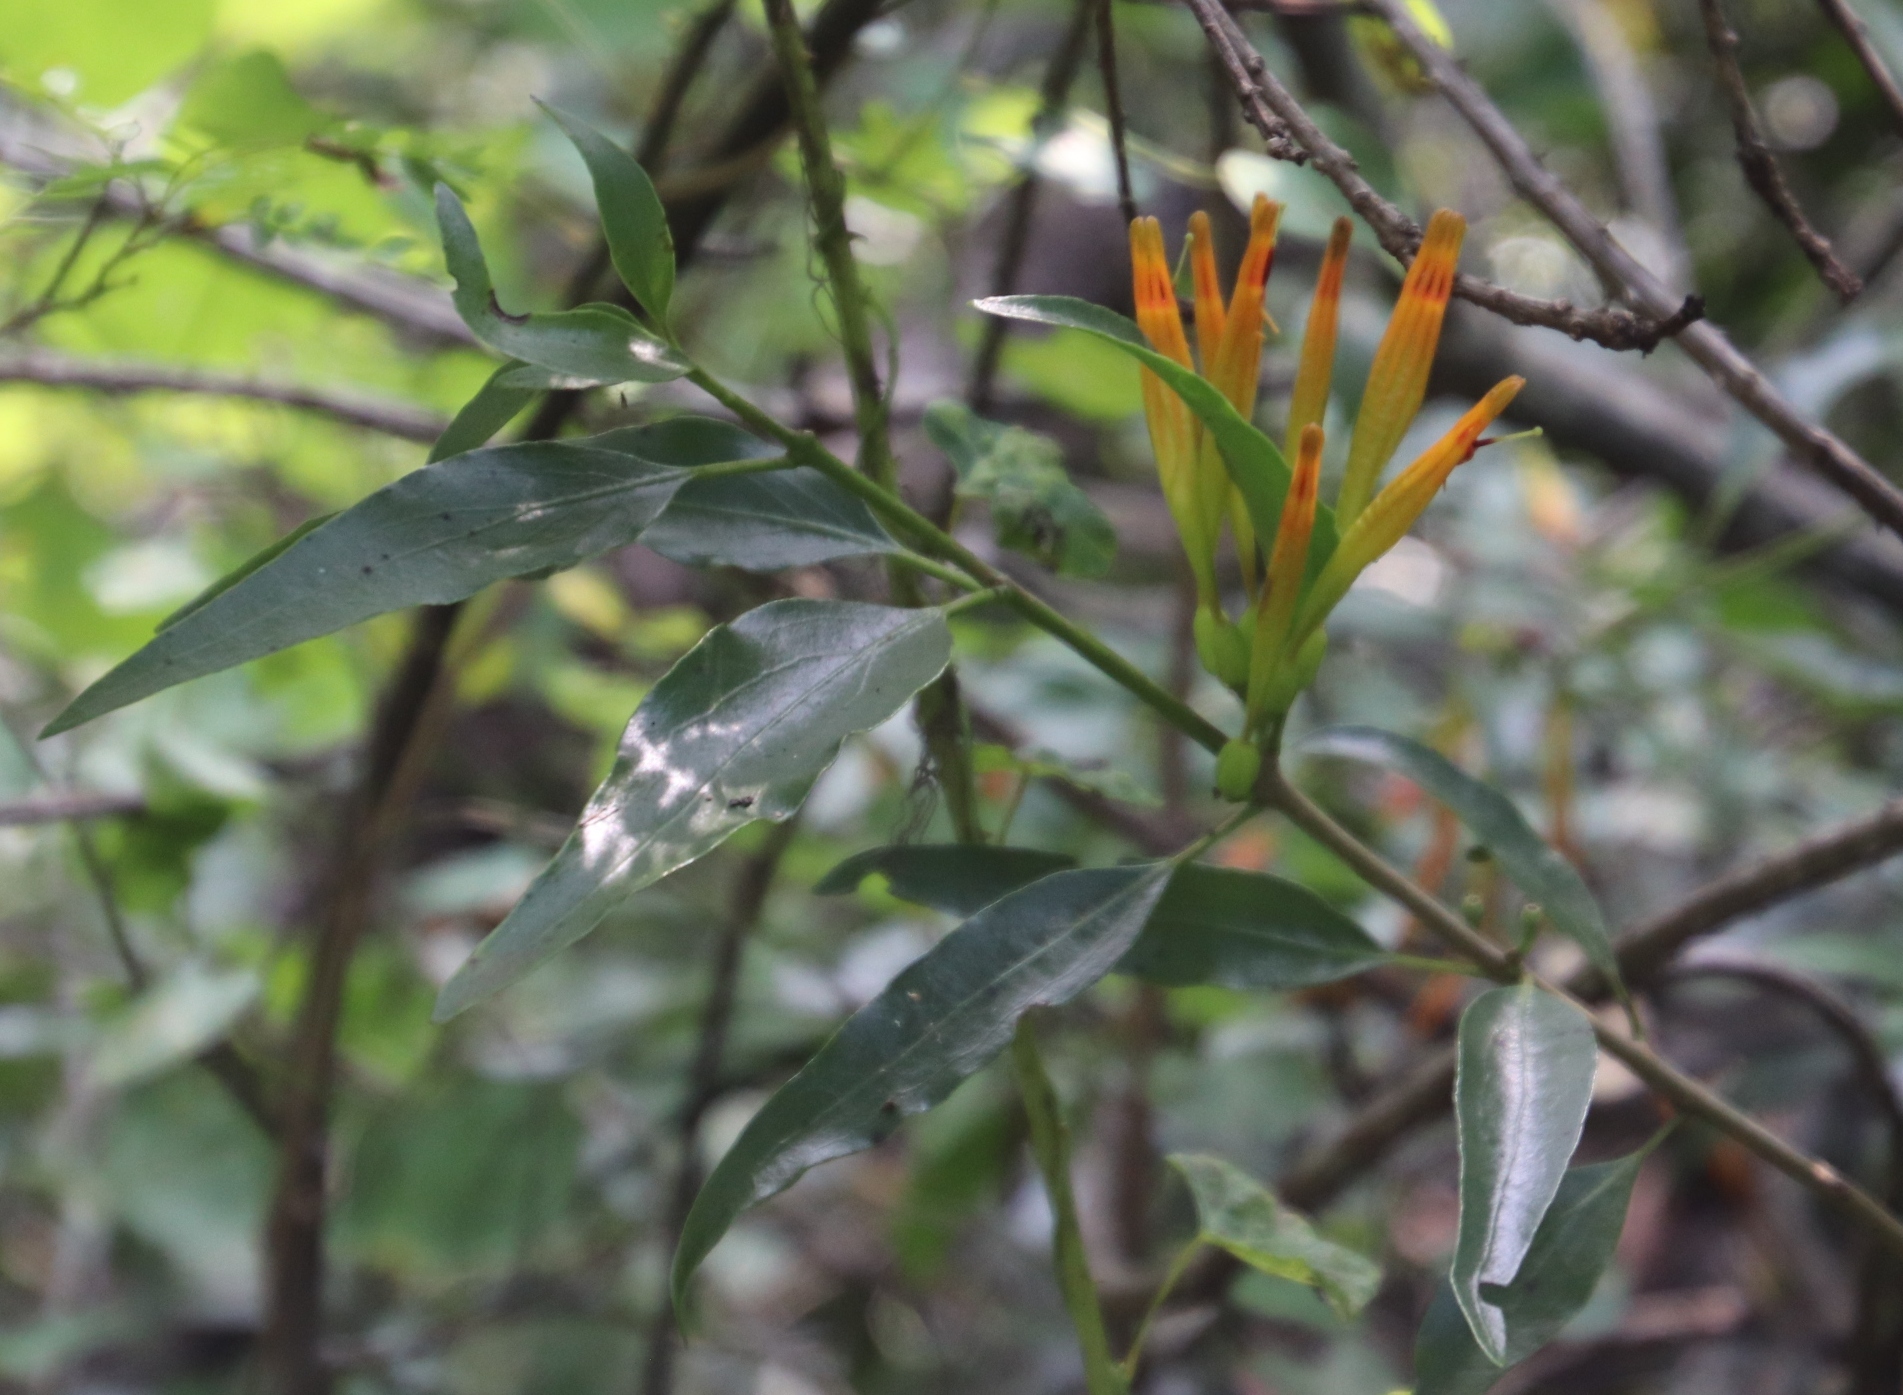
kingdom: Plantae
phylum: Tracheophyta
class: Magnoliopsida
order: Santalales
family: Loranthaceae
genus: Agelanthus
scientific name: Agelanthus transvaalensis
